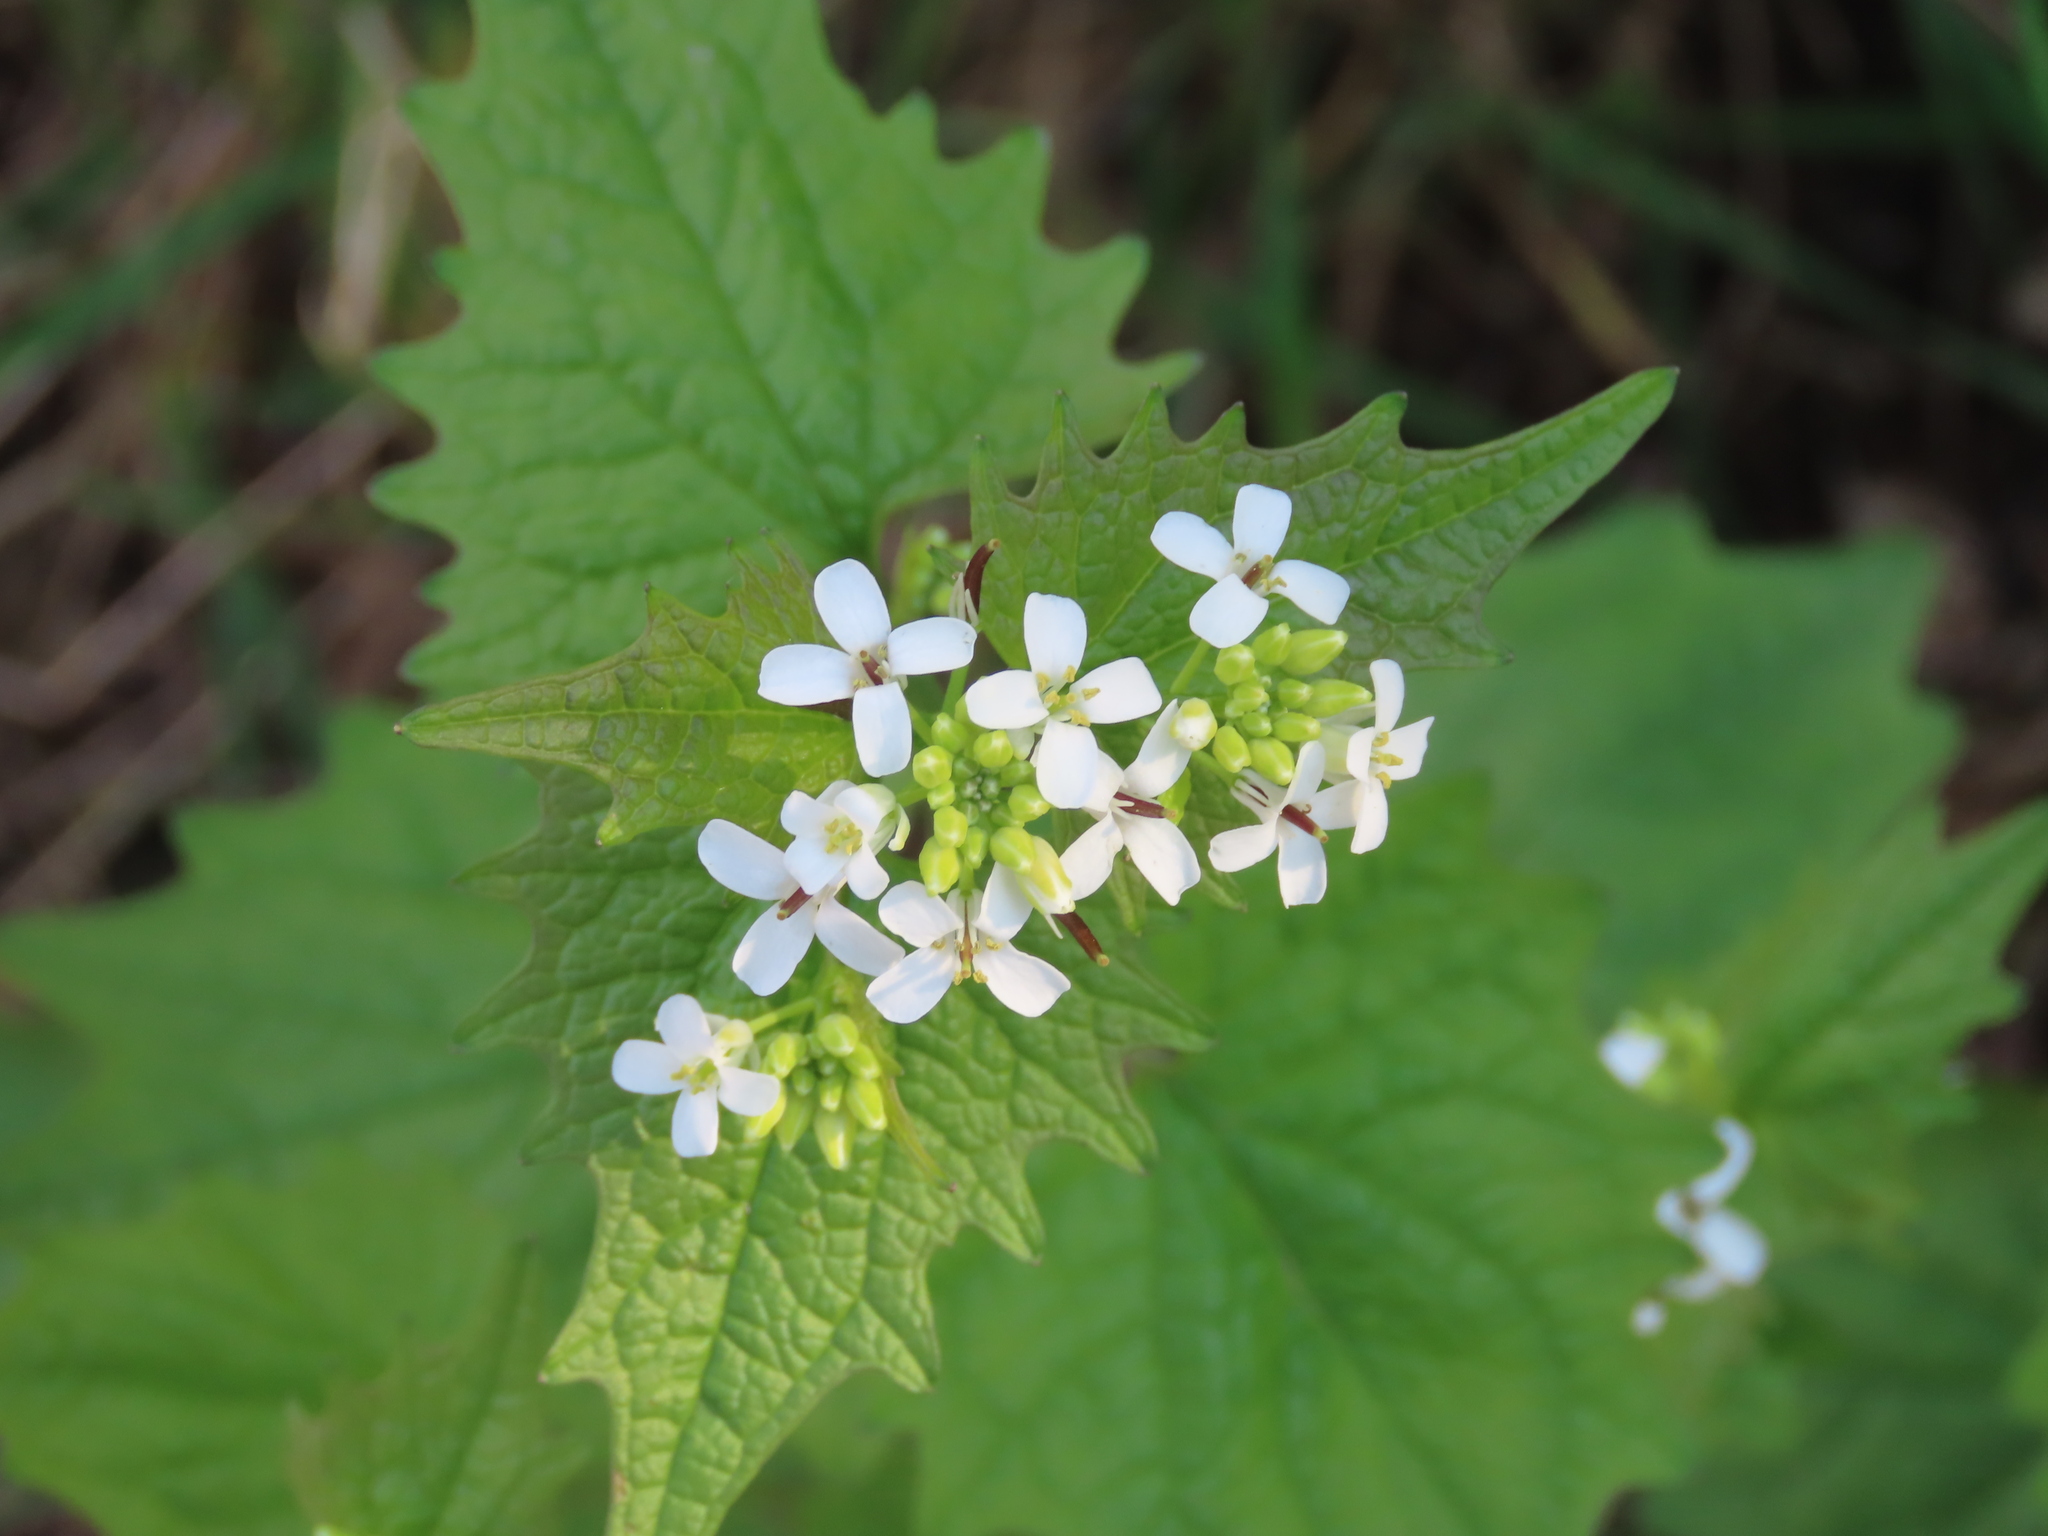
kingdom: Plantae
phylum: Tracheophyta
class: Magnoliopsida
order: Brassicales
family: Brassicaceae
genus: Alliaria
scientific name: Alliaria petiolata
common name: Garlic mustard
